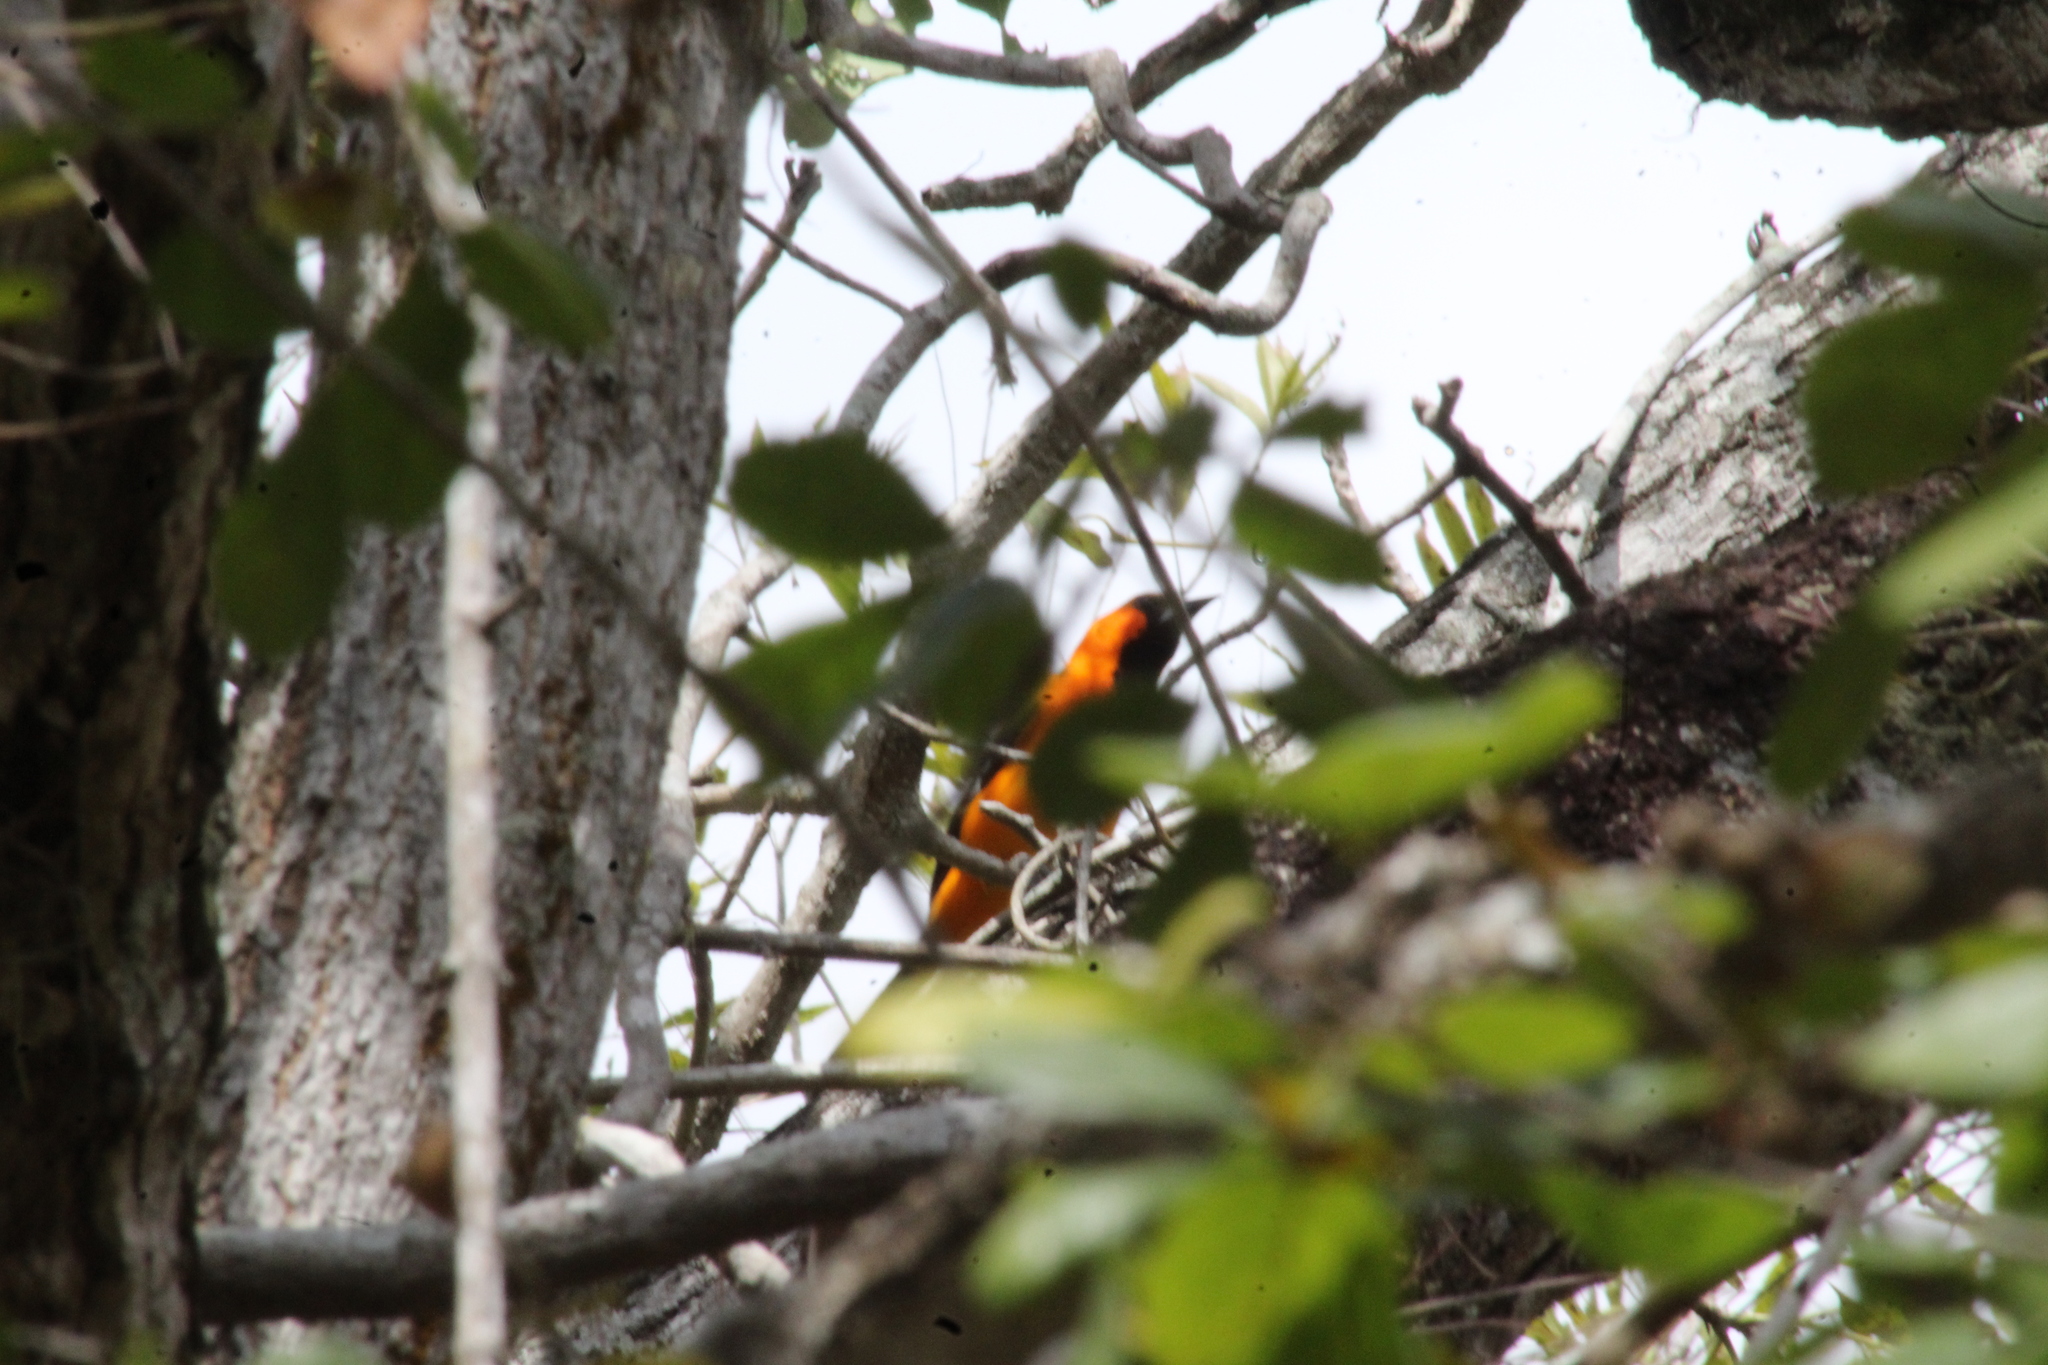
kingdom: Animalia
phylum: Chordata
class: Aves
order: Passeriformes
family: Icteridae
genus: Icterus
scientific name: Icterus gularis
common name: Altamira oriole
